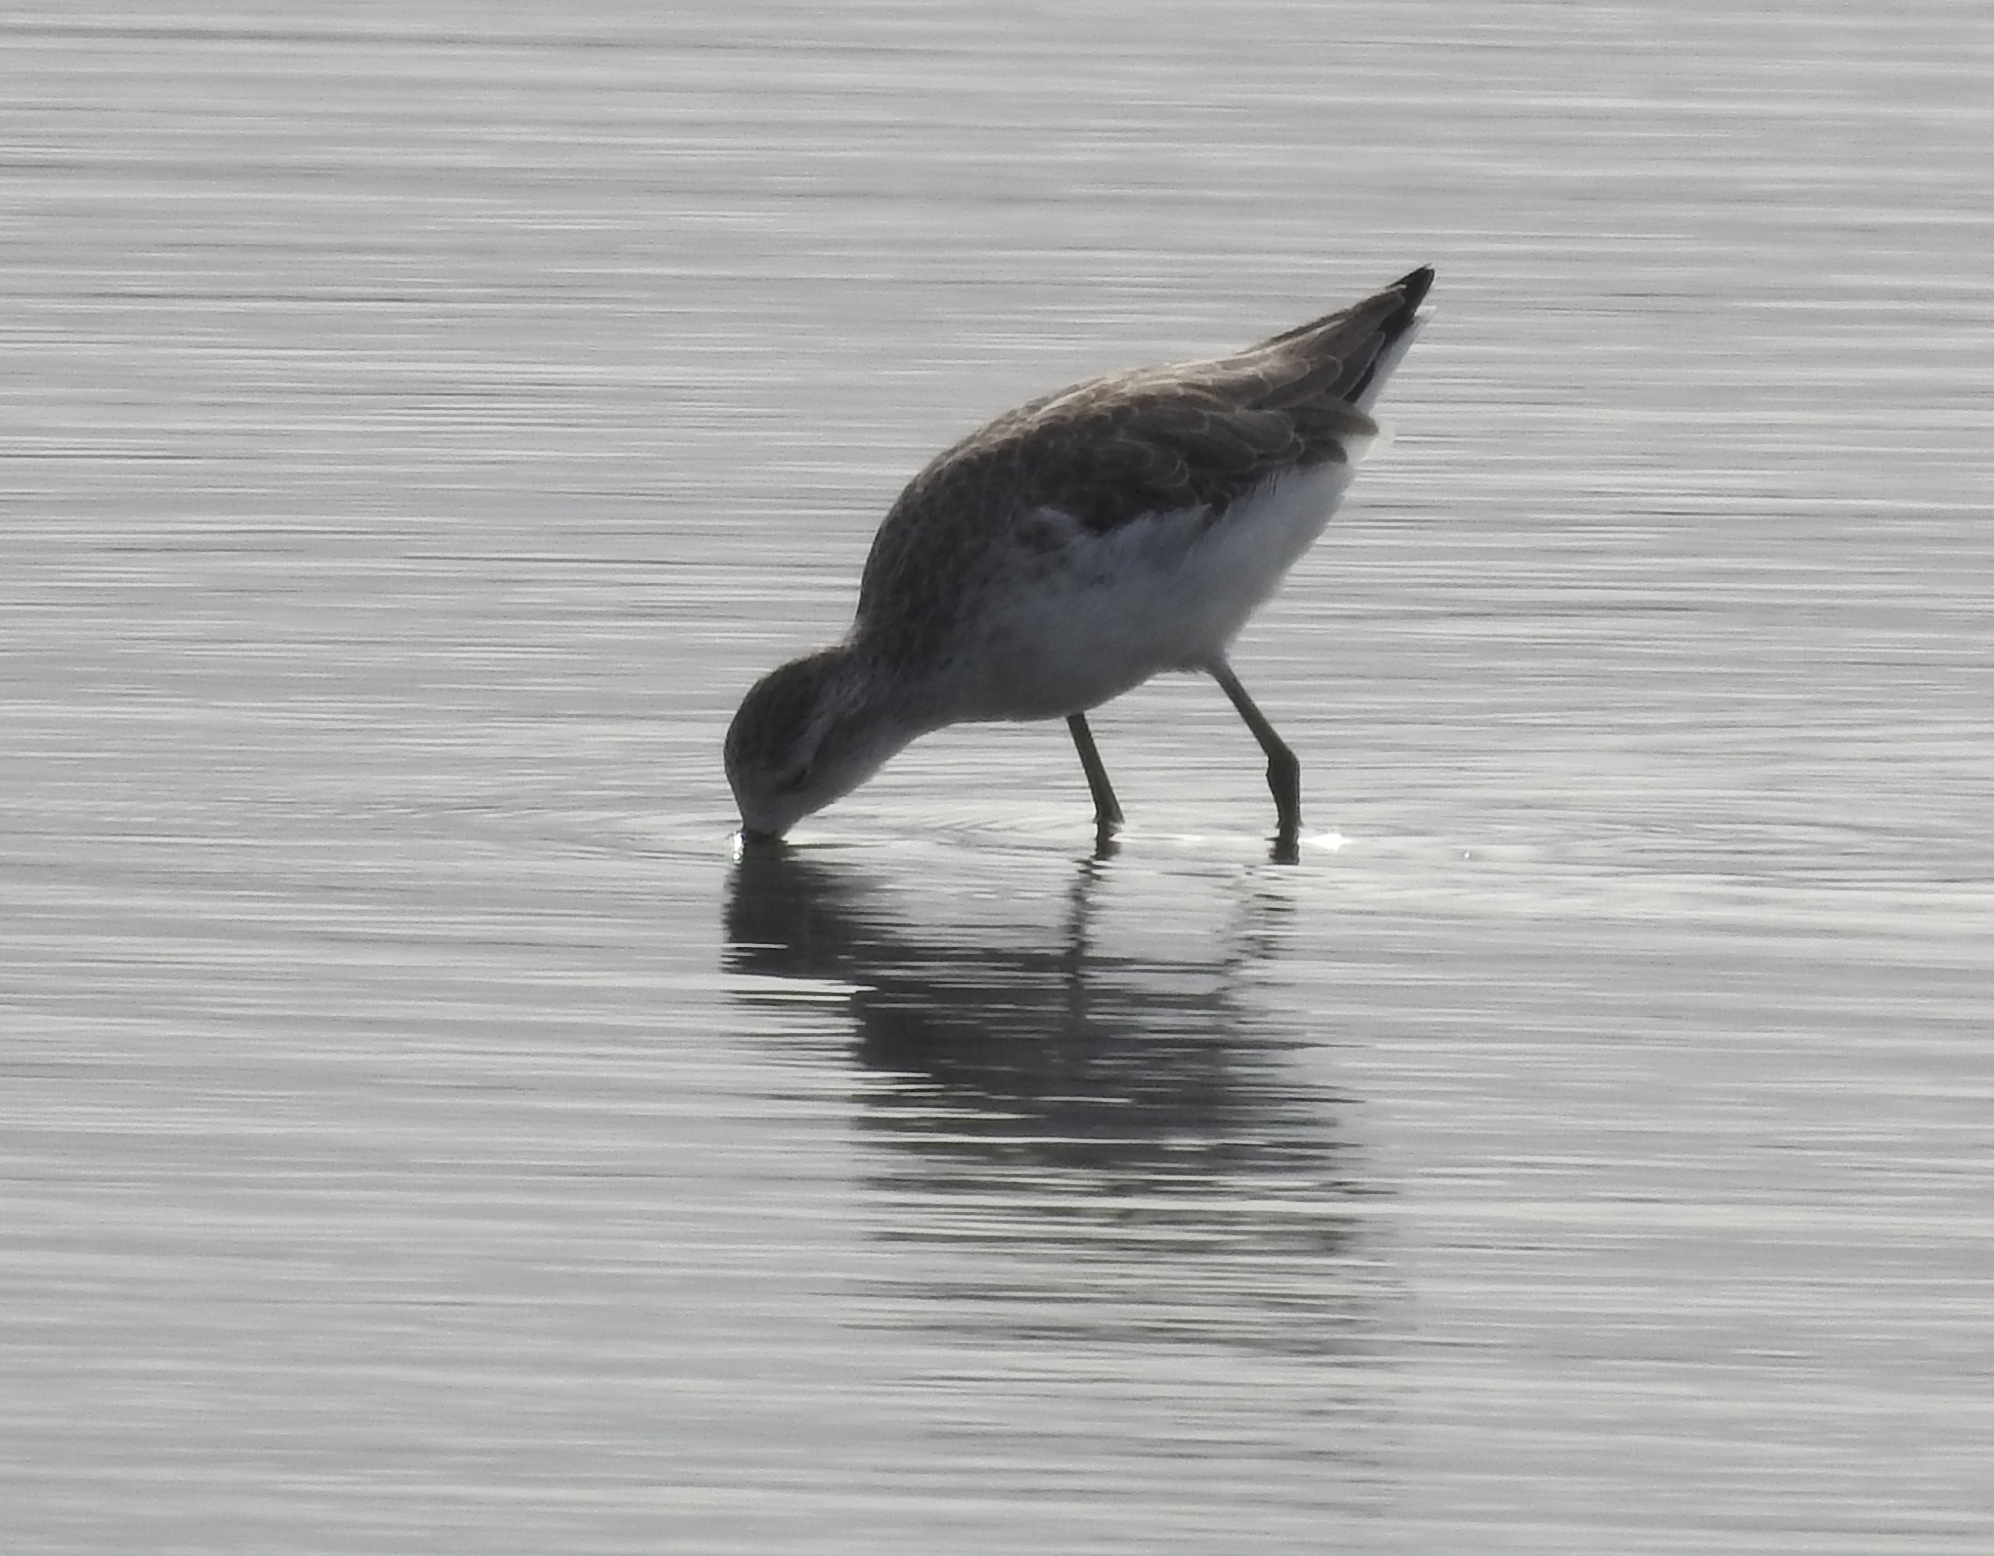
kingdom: Animalia
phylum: Chordata
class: Aves
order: Charadriiformes
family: Scolopacidae
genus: Tringa
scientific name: Tringa stagnatilis
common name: Marsh sandpiper
